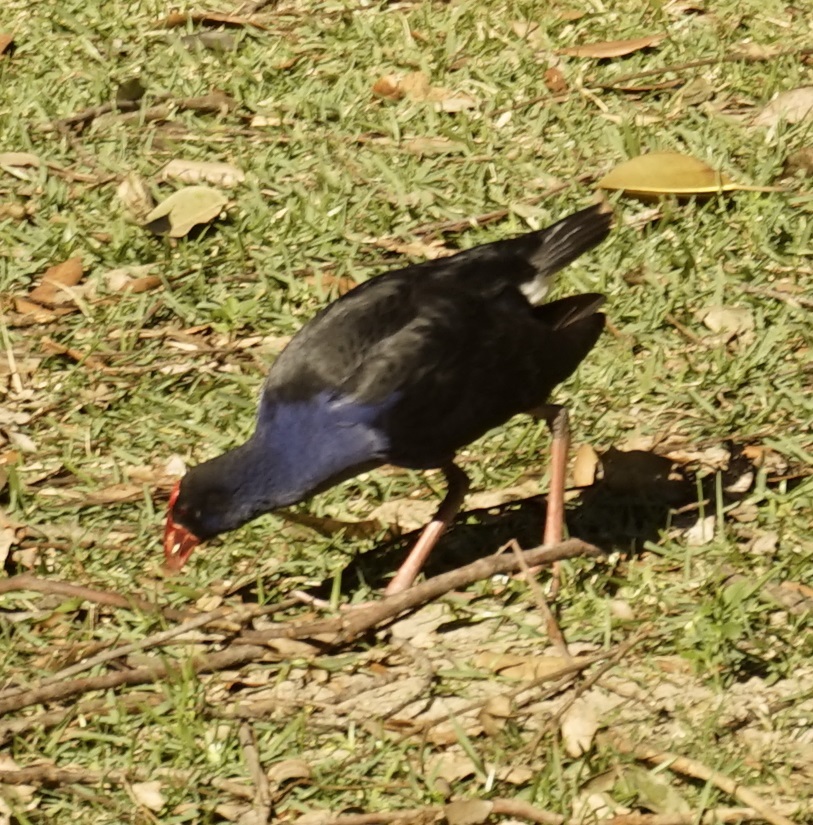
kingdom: Animalia
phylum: Chordata
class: Aves
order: Gruiformes
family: Rallidae
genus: Porphyrio
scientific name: Porphyrio melanotus
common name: Australasian swamphen
